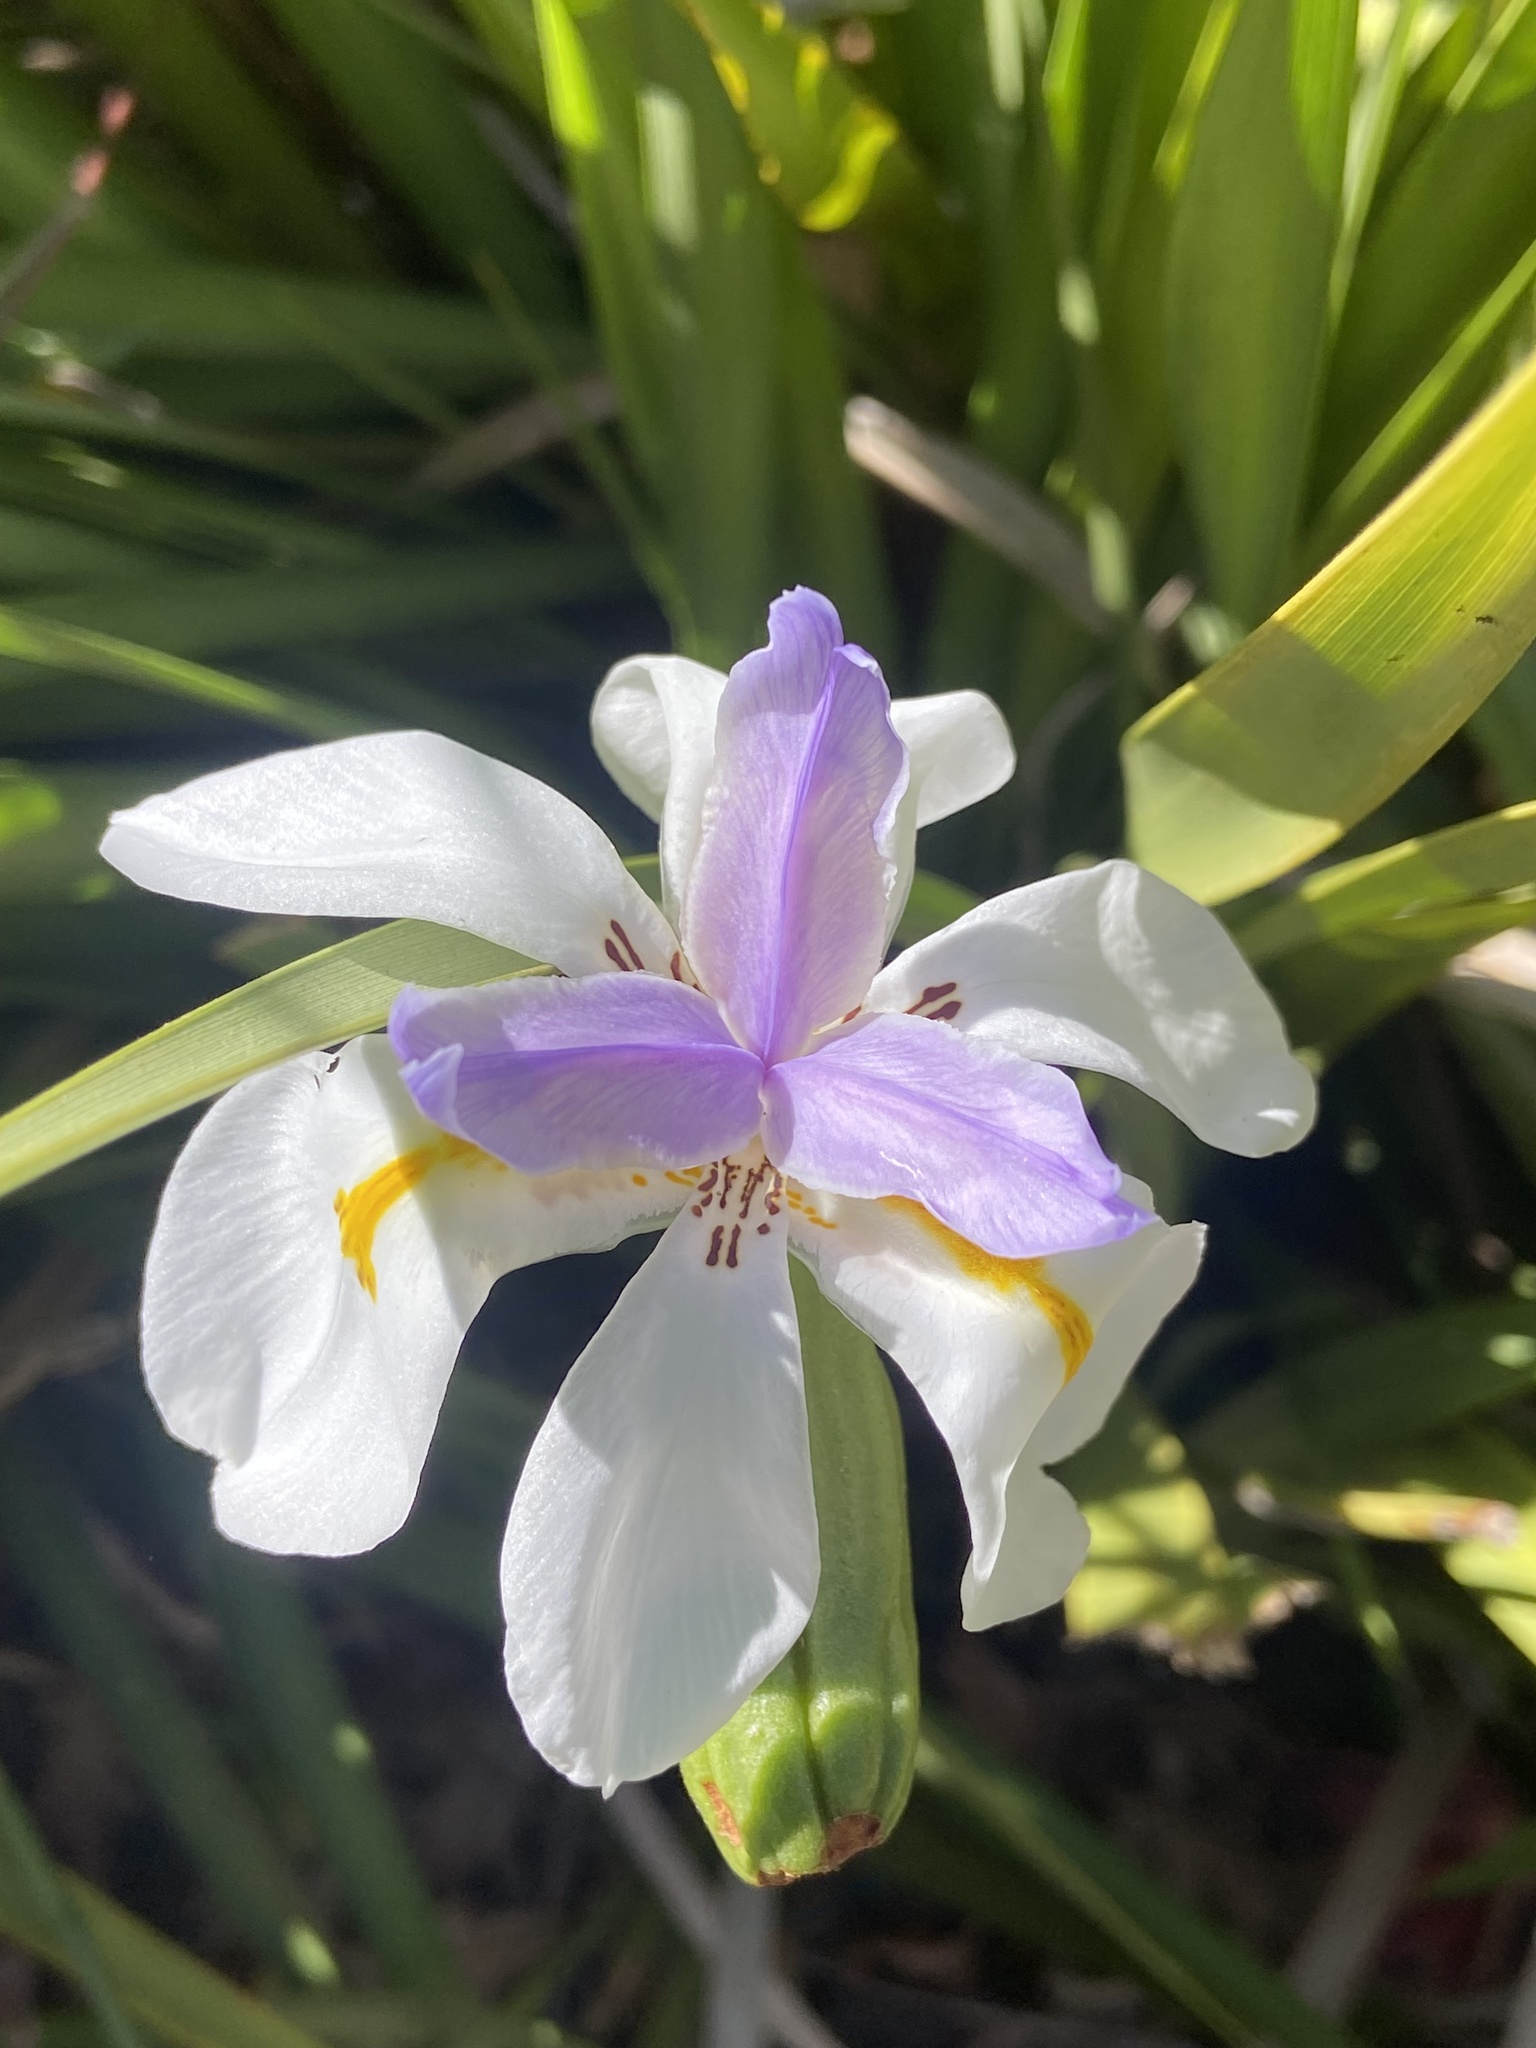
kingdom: Plantae
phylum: Tracheophyta
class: Liliopsida
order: Asparagales
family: Iridaceae
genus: Dietes
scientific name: Dietes grandiflora
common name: Wild iris
